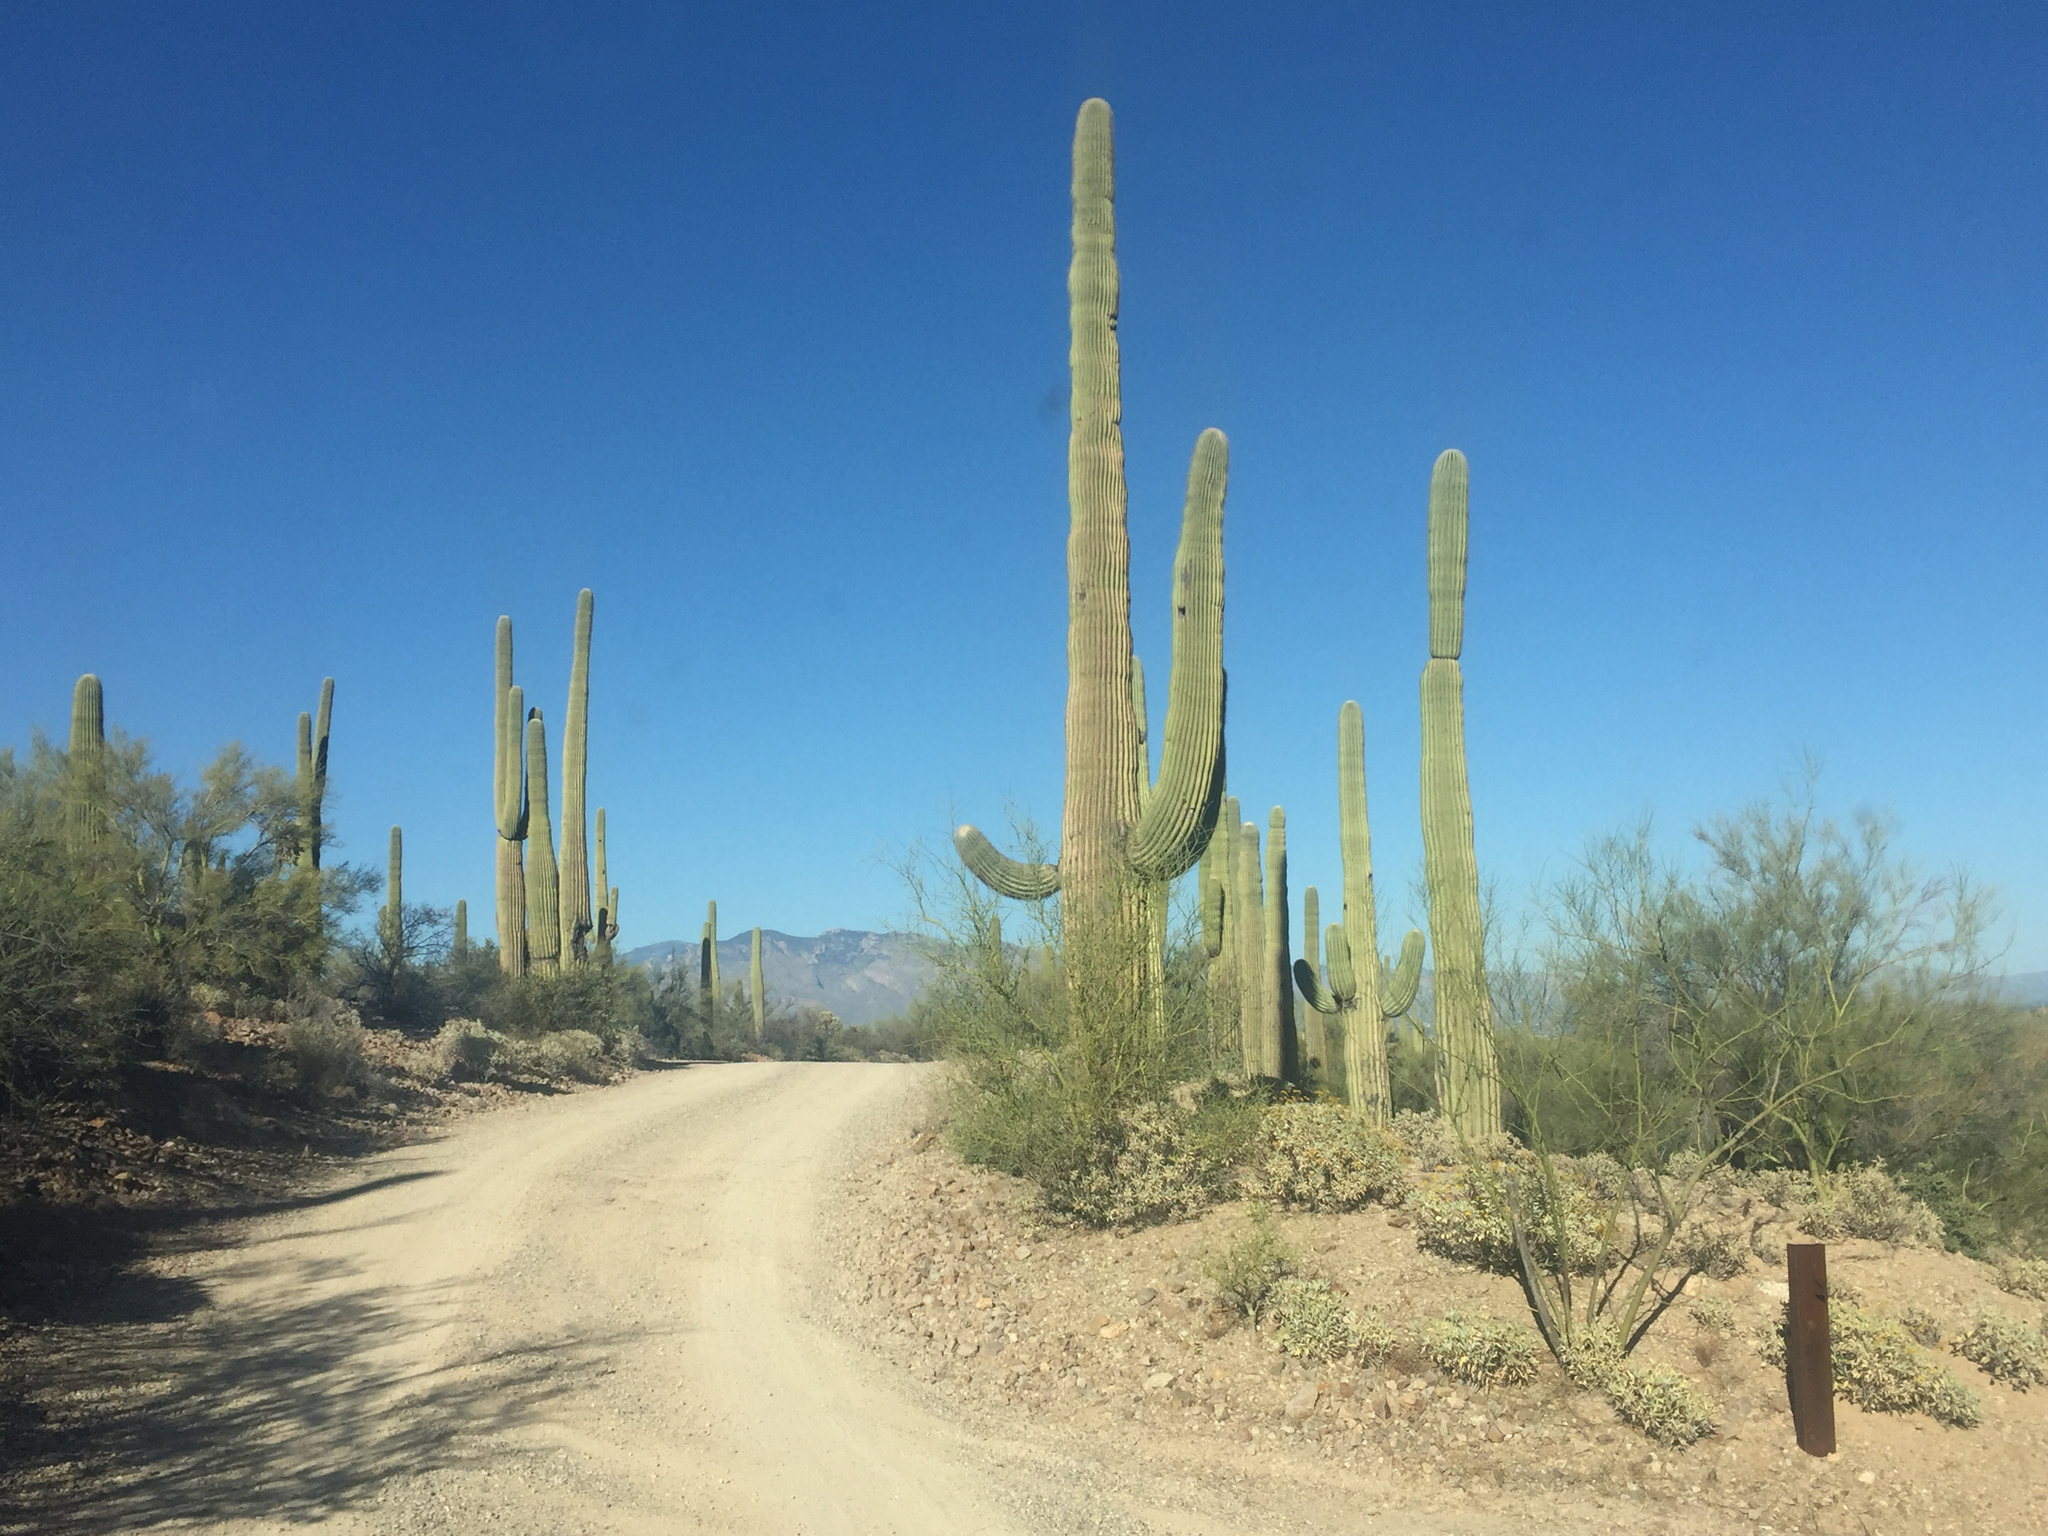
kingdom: Plantae
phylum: Tracheophyta
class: Magnoliopsida
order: Caryophyllales
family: Cactaceae
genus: Carnegiea
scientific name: Carnegiea gigantea
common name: Saguaro
